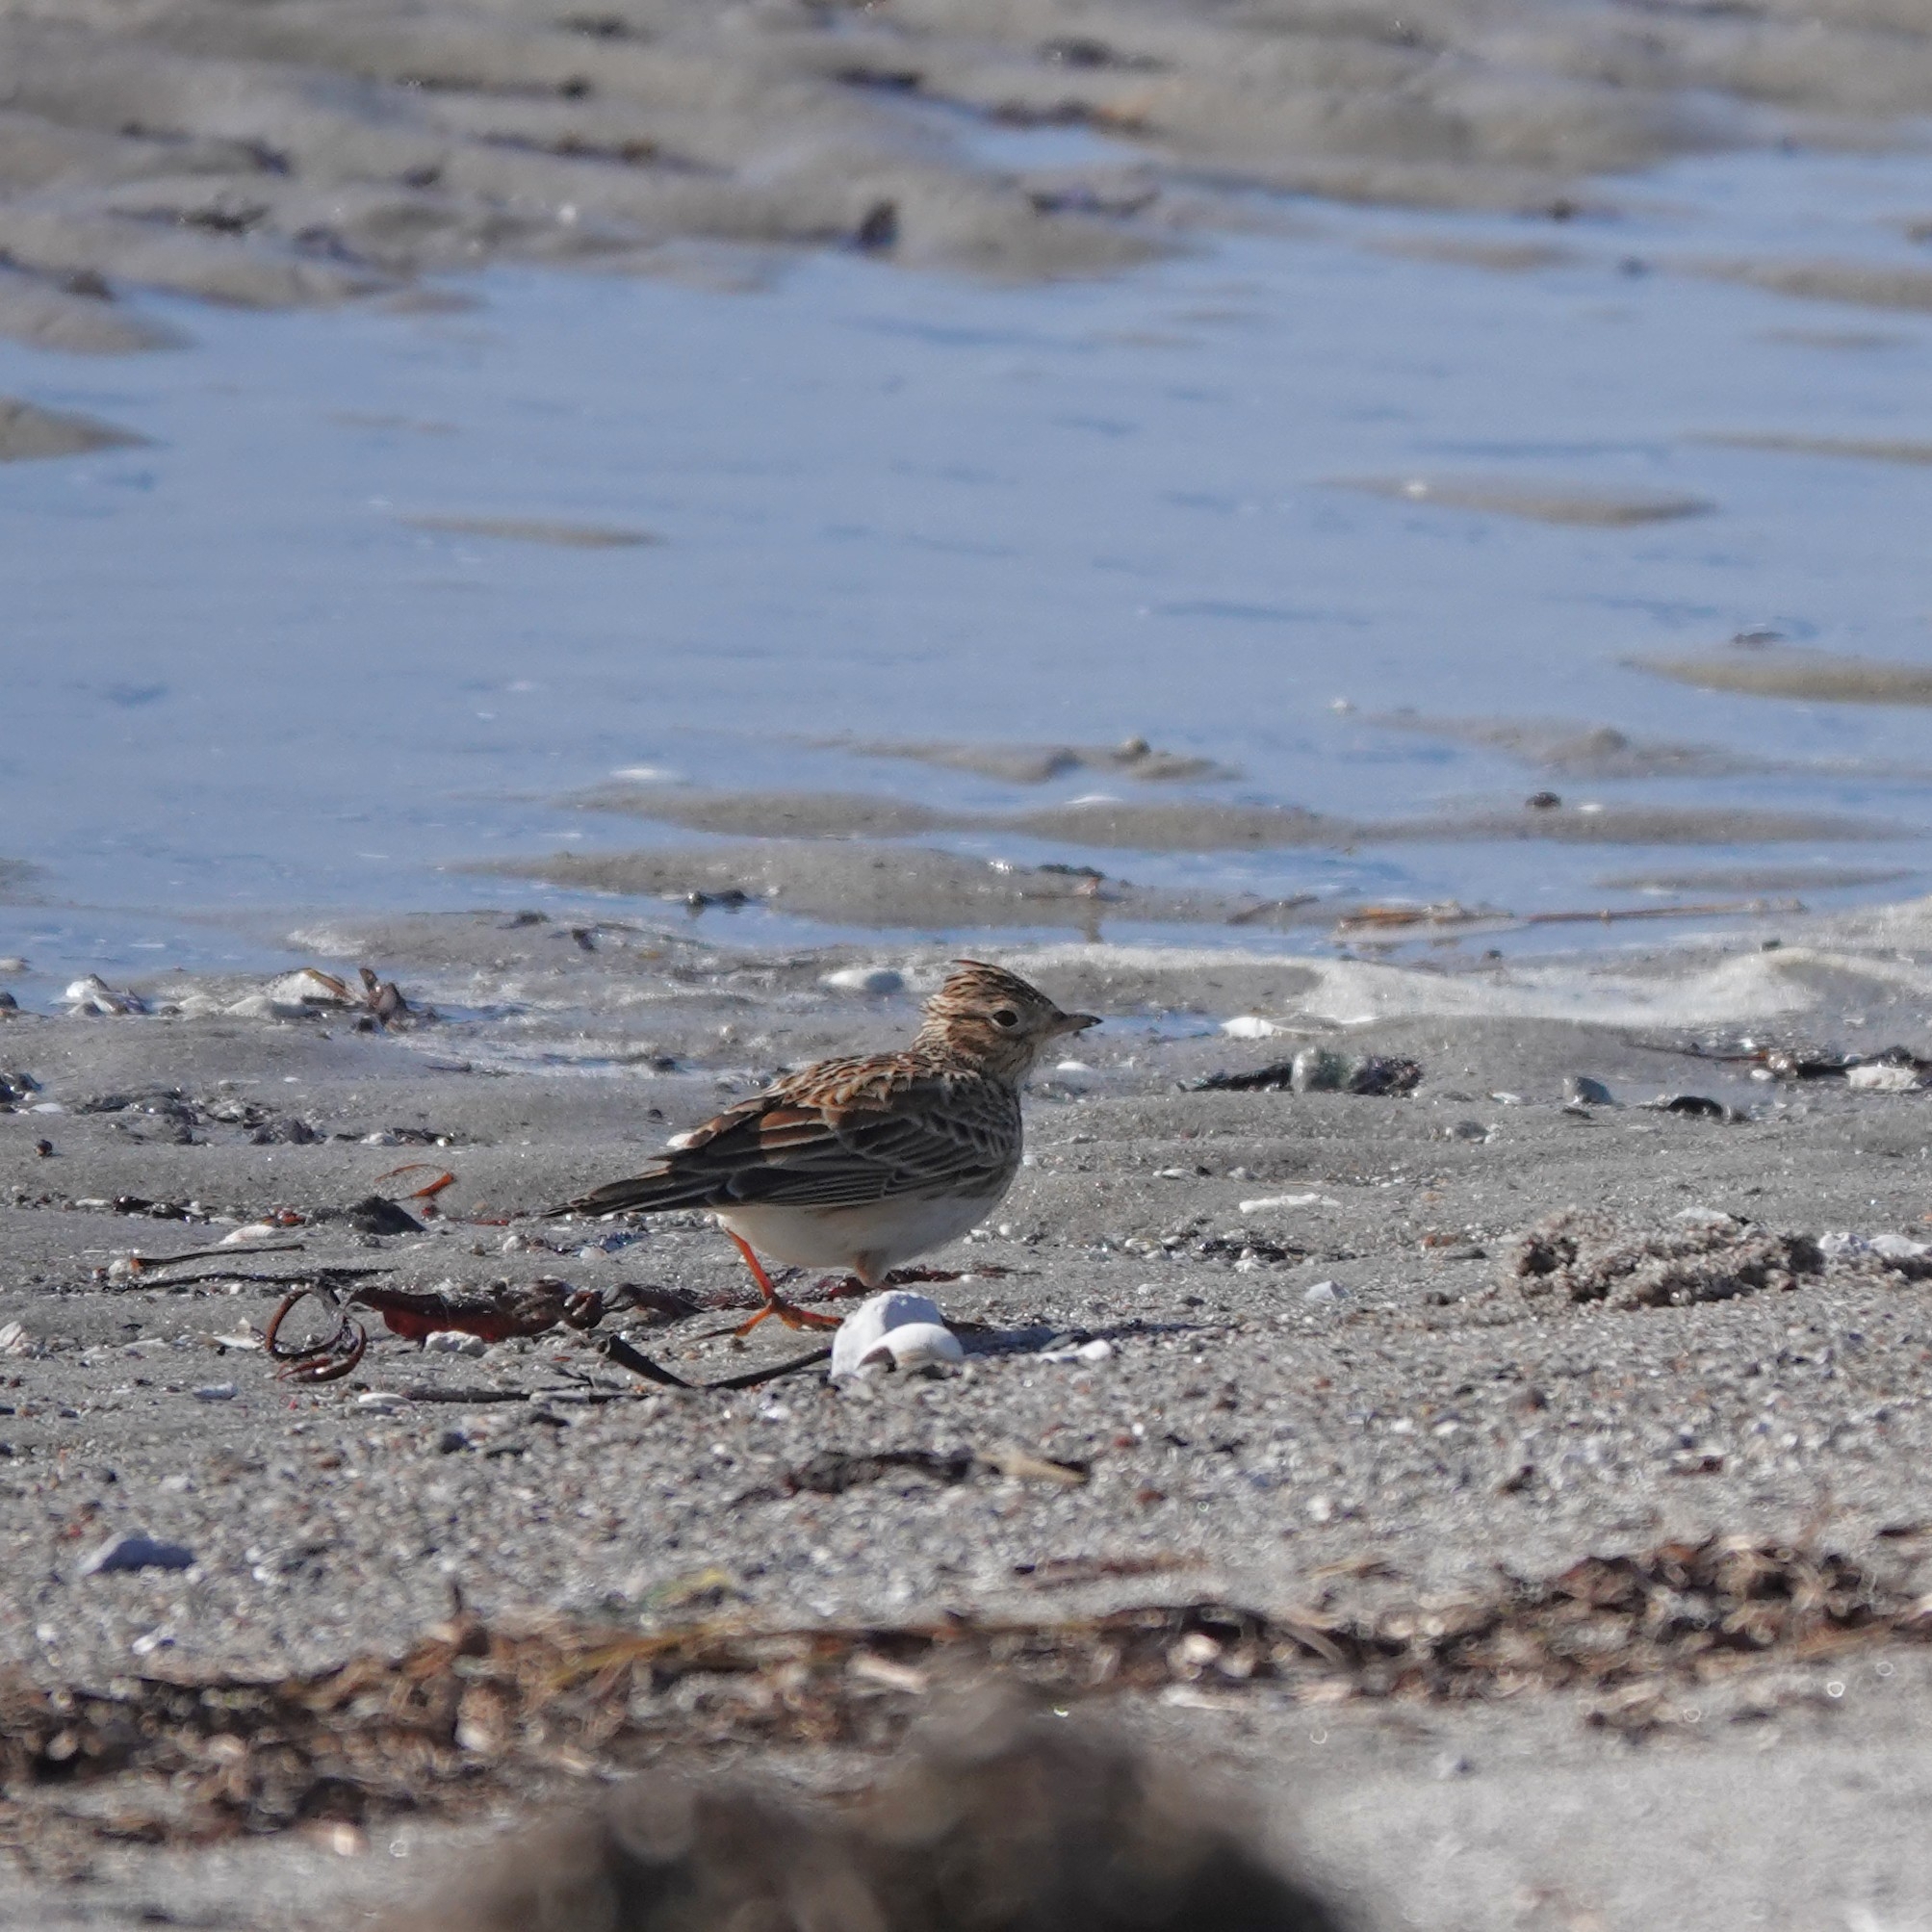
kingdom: Animalia
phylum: Chordata
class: Aves
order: Passeriformes
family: Alaudidae
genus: Alauda
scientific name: Alauda arvensis
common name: Eurasian skylark
